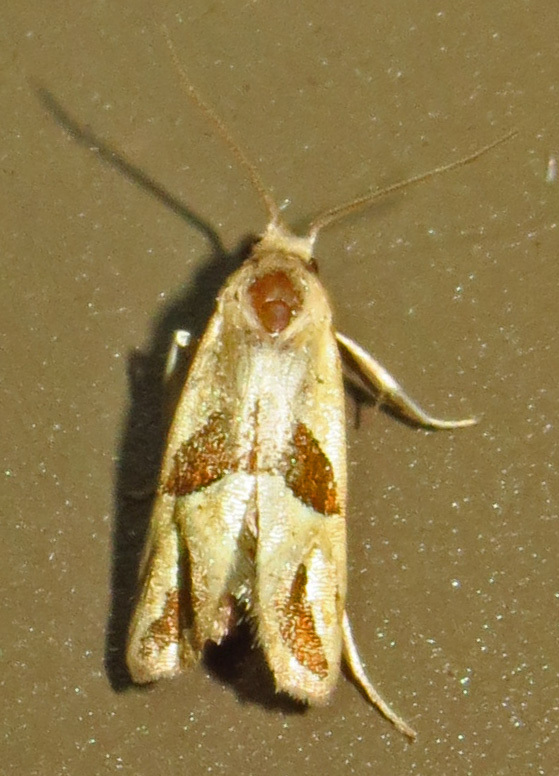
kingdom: Animalia
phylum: Arthropoda
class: Insecta
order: Lepidoptera
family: Tortricidae
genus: Eugnosta
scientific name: Eugnosta bimaculana
